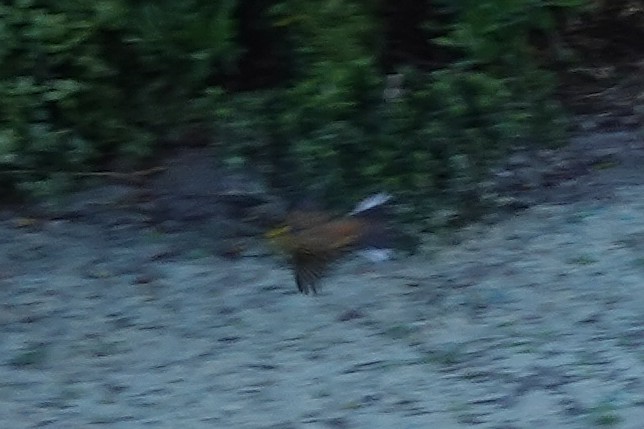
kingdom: Animalia
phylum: Chordata
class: Aves
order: Passeriformes
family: Emberizidae
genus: Emberiza
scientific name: Emberiza citrinella
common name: Yellowhammer
